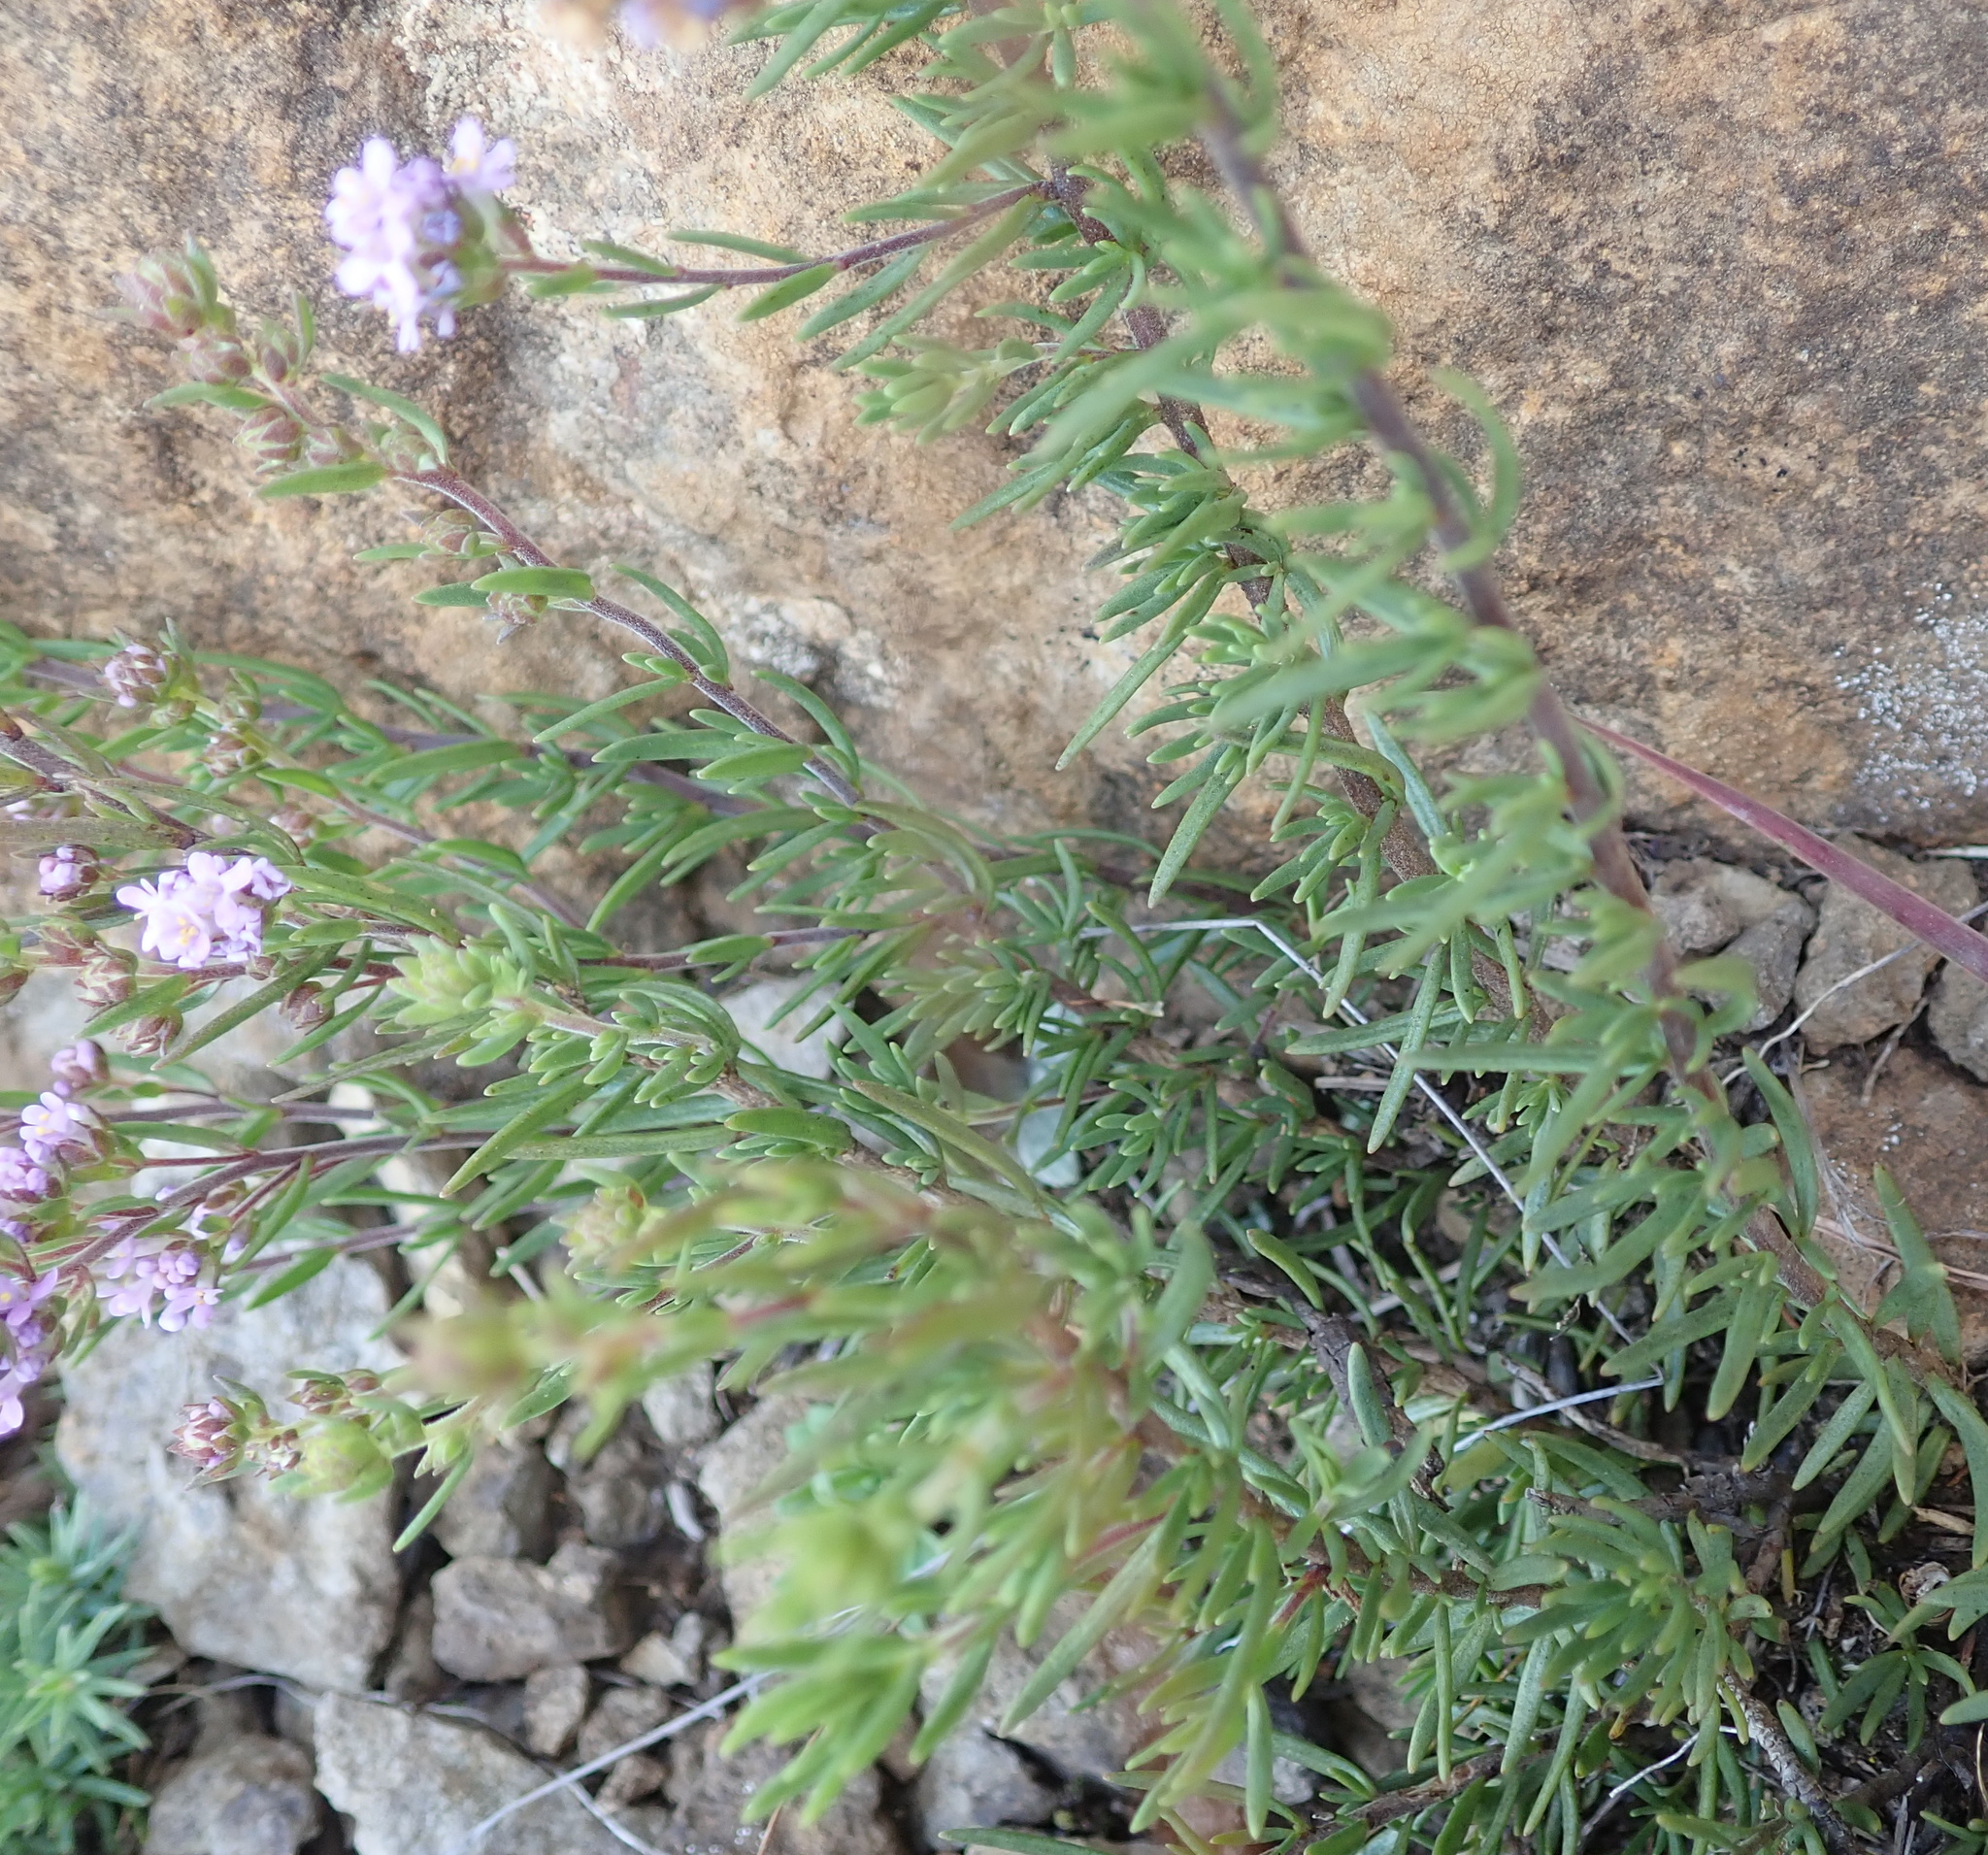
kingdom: Plantae
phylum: Tracheophyta
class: Magnoliopsida
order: Lamiales
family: Scrophulariaceae
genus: Selago
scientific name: Selago galpinii
